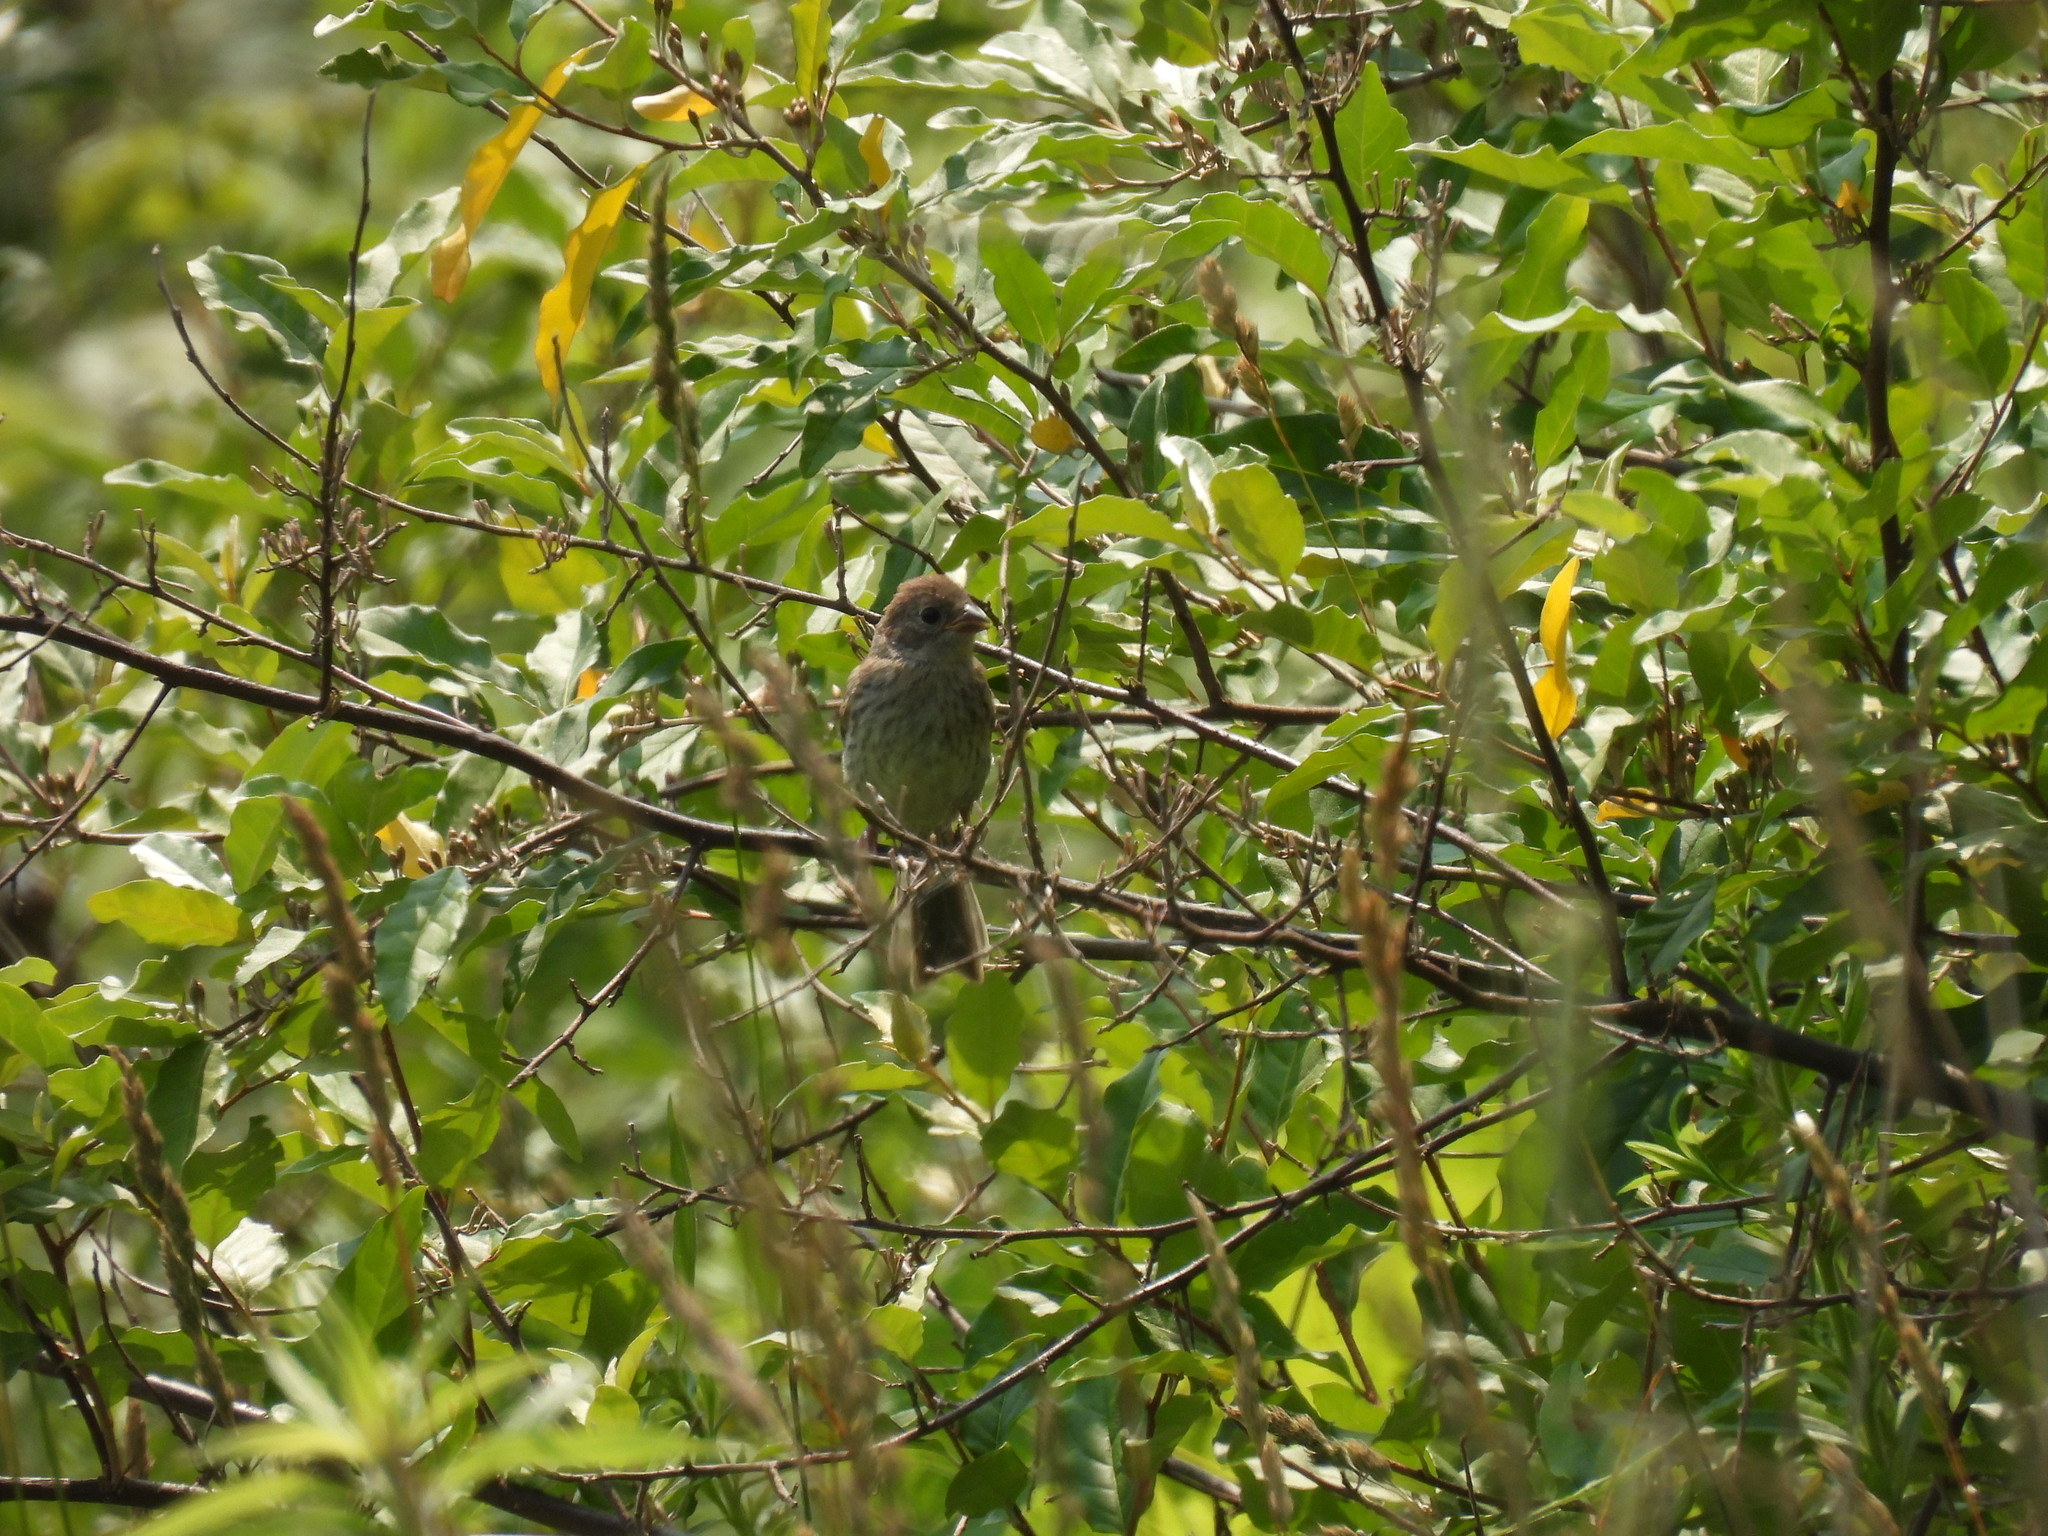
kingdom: Animalia
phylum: Chordata
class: Aves
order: Passeriformes
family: Cardinalidae
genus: Passerina
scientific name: Passerina cyanea
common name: Indigo bunting
